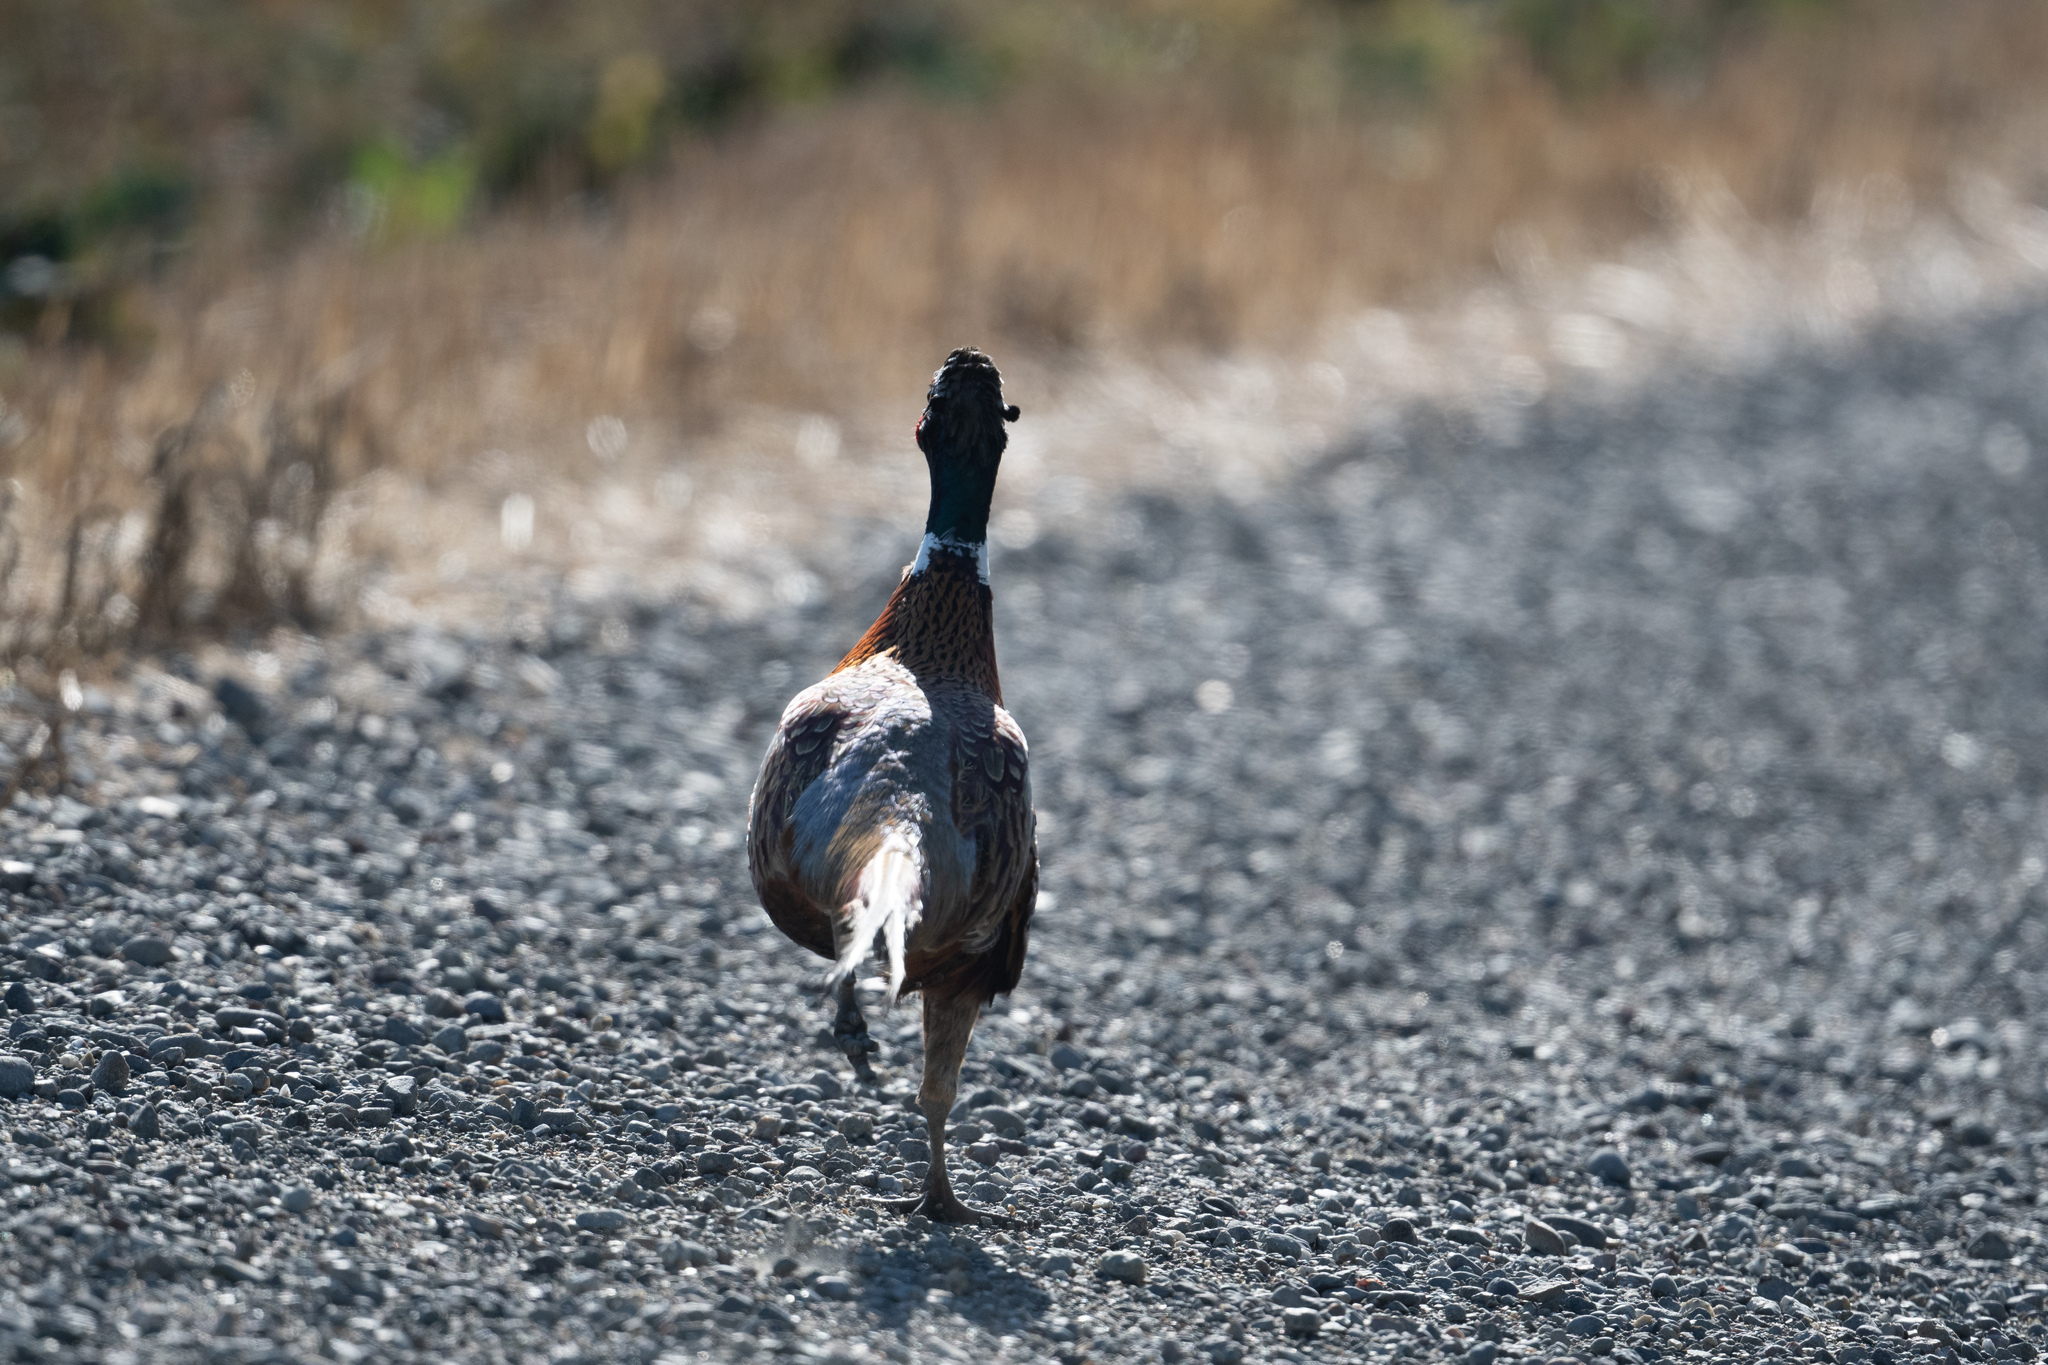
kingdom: Animalia
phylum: Chordata
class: Aves
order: Galliformes
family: Phasianidae
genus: Phasianus
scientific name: Phasianus colchicus
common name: Common pheasant
